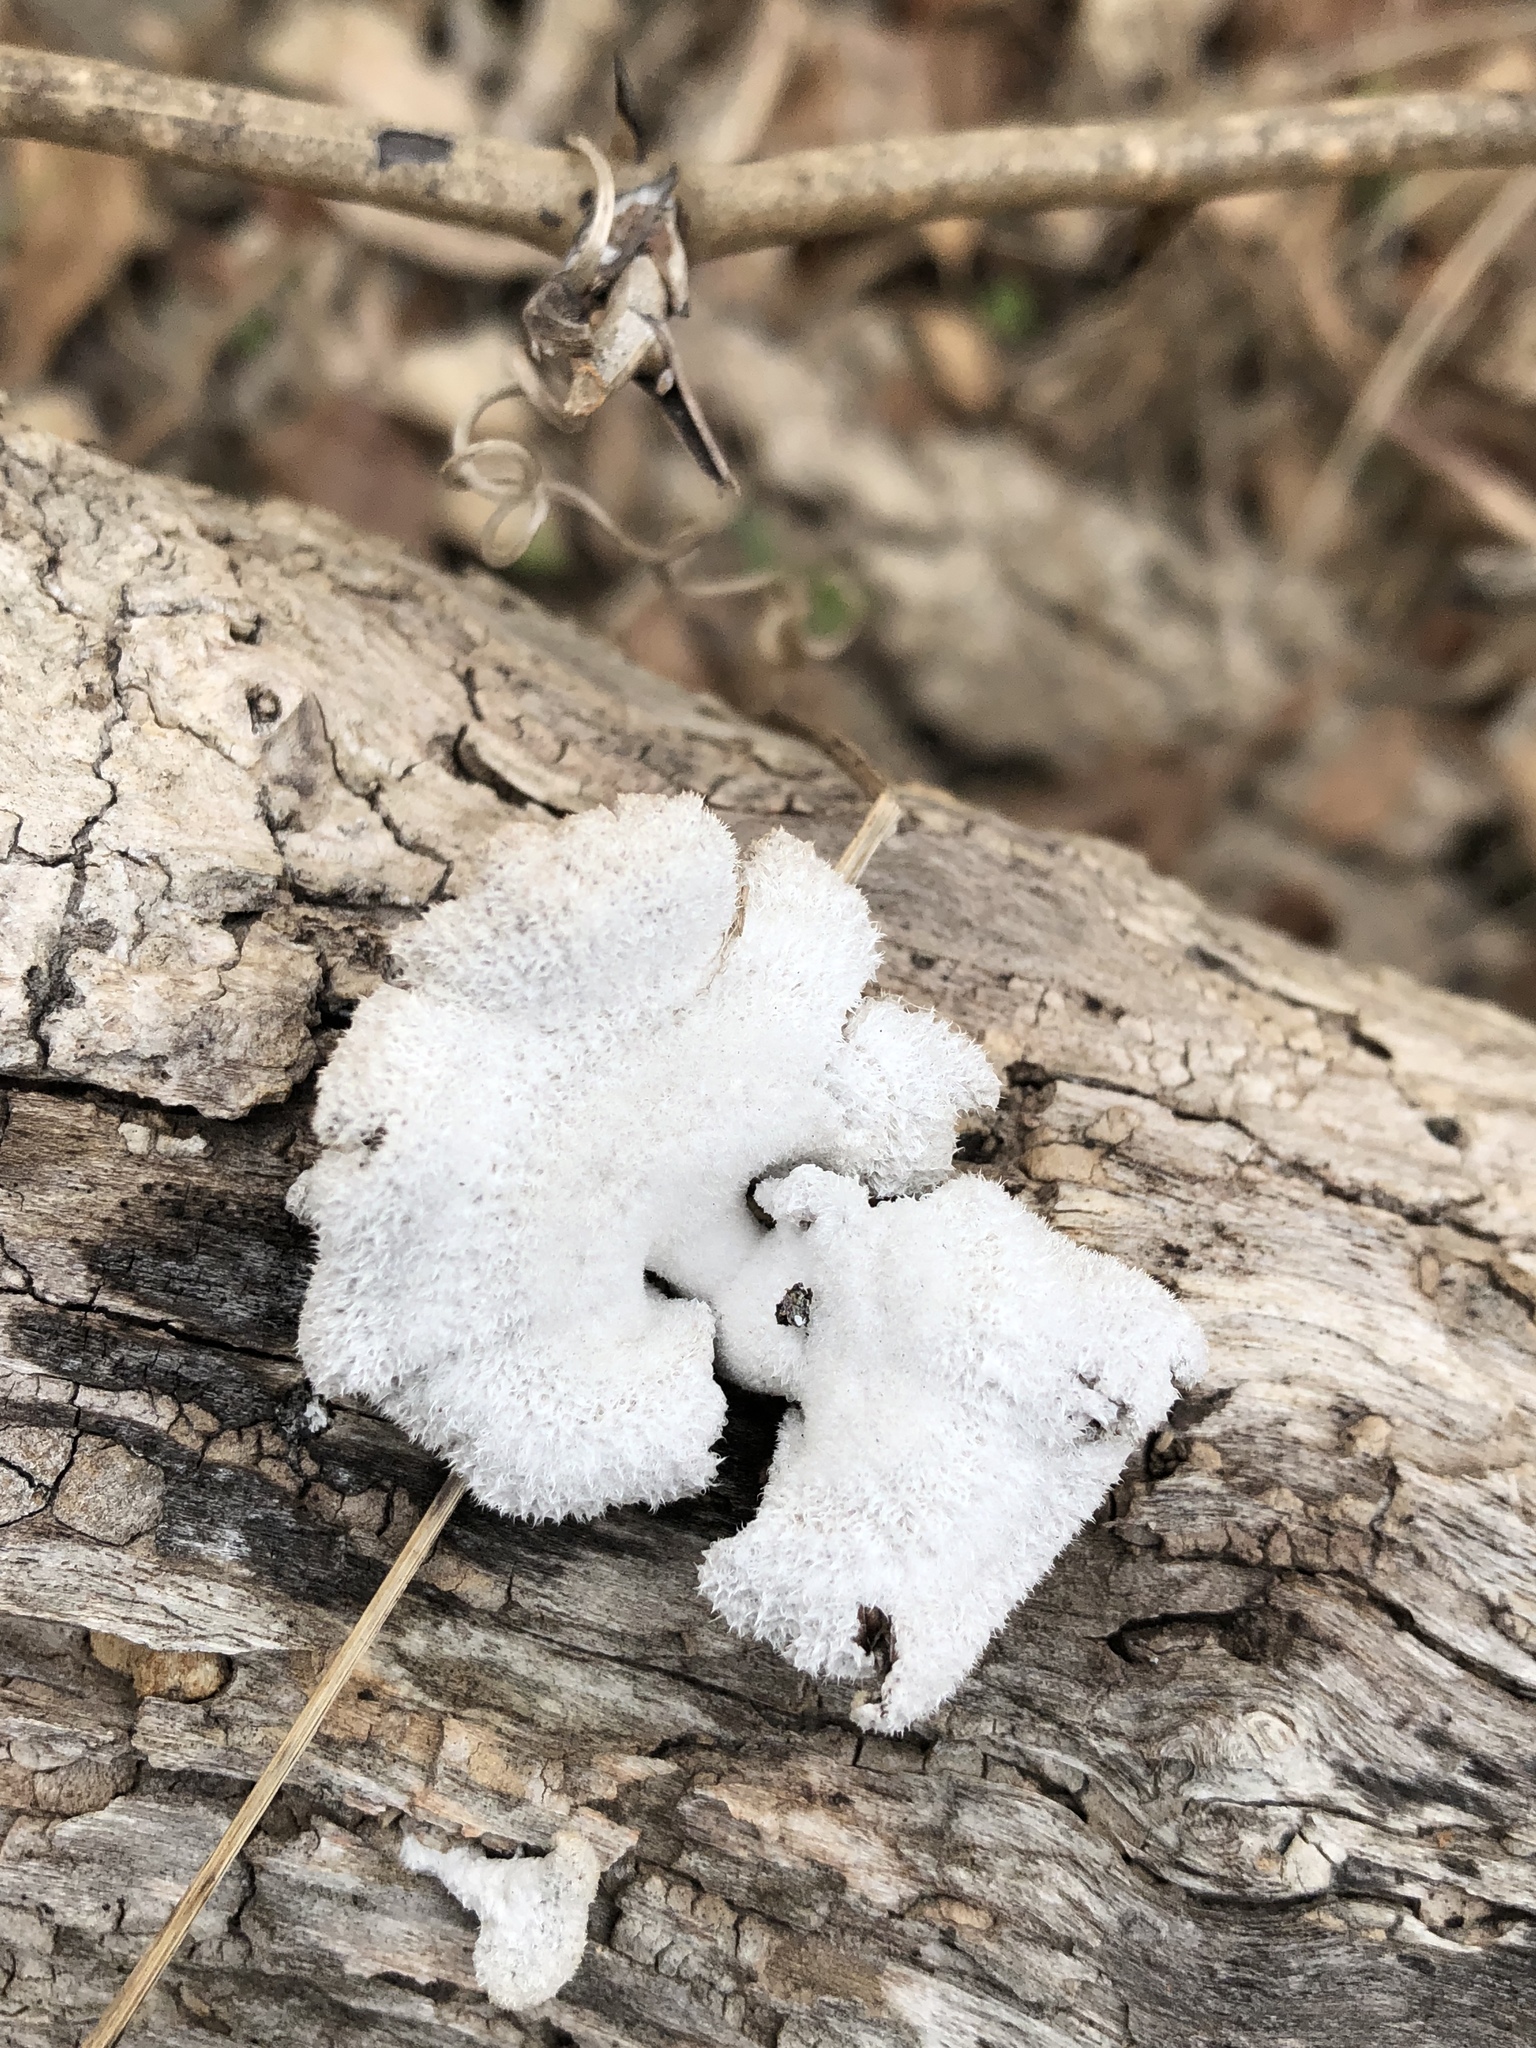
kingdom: Fungi
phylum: Basidiomycota
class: Agaricomycetes
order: Agaricales
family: Schizophyllaceae
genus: Schizophyllum
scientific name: Schizophyllum commune
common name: Common porecrust
